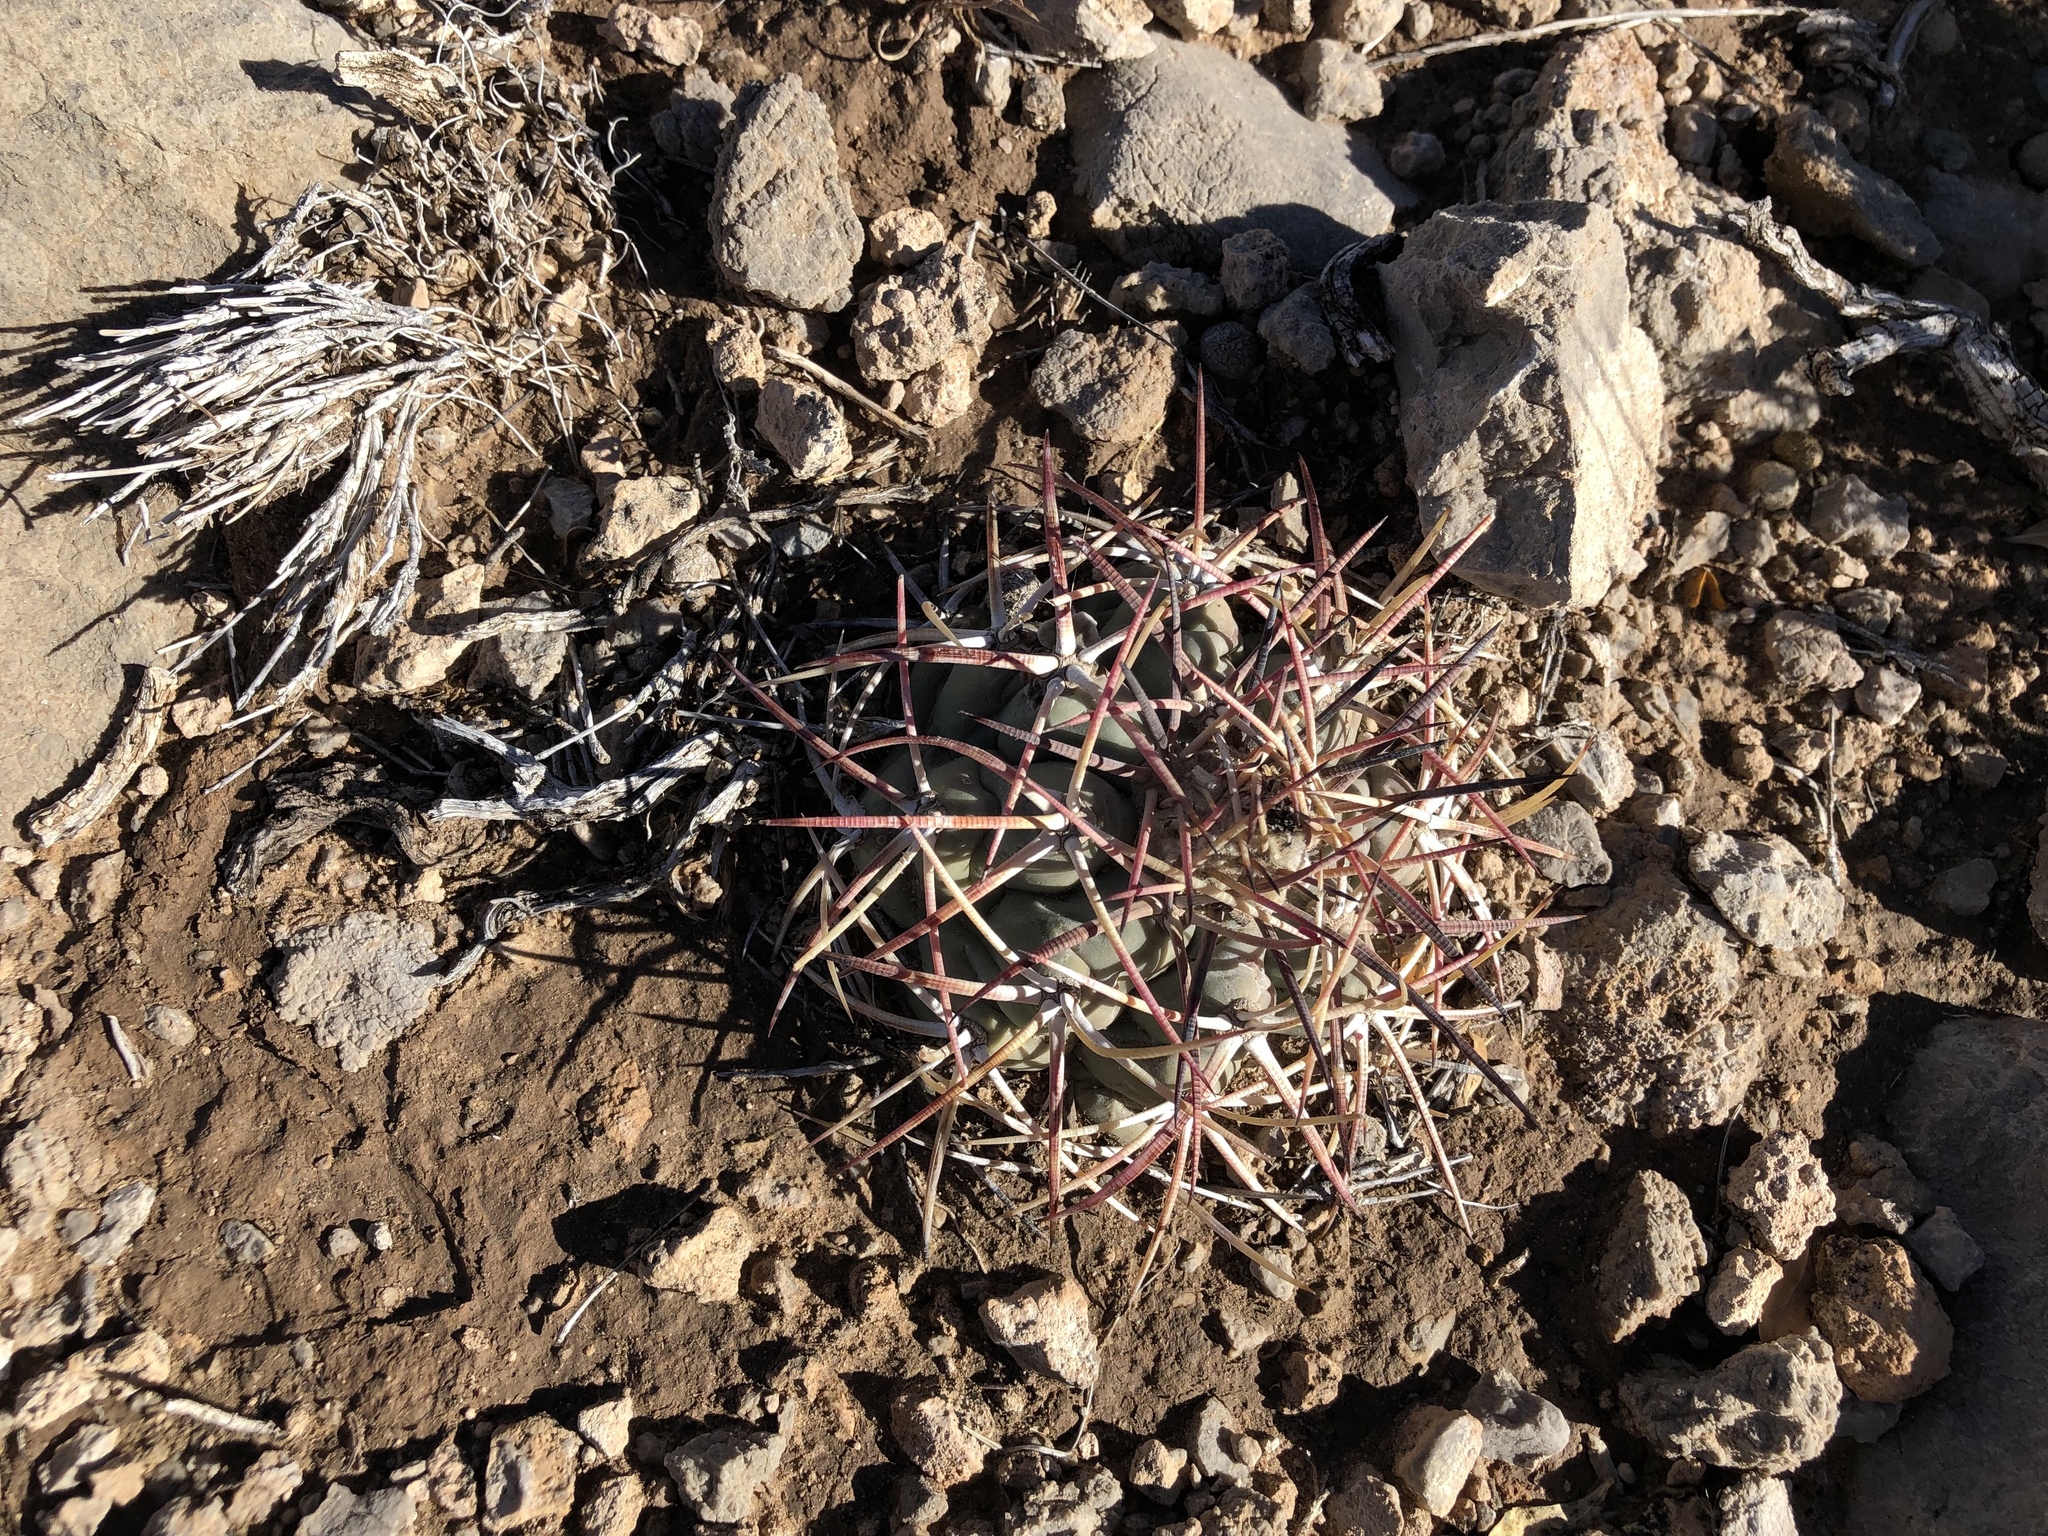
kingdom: Plantae
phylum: Tracheophyta
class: Magnoliopsida
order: Caryophyllales
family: Cactaceae
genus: Echinocactus
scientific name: Echinocactus horizonthalonius
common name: Devilshead
